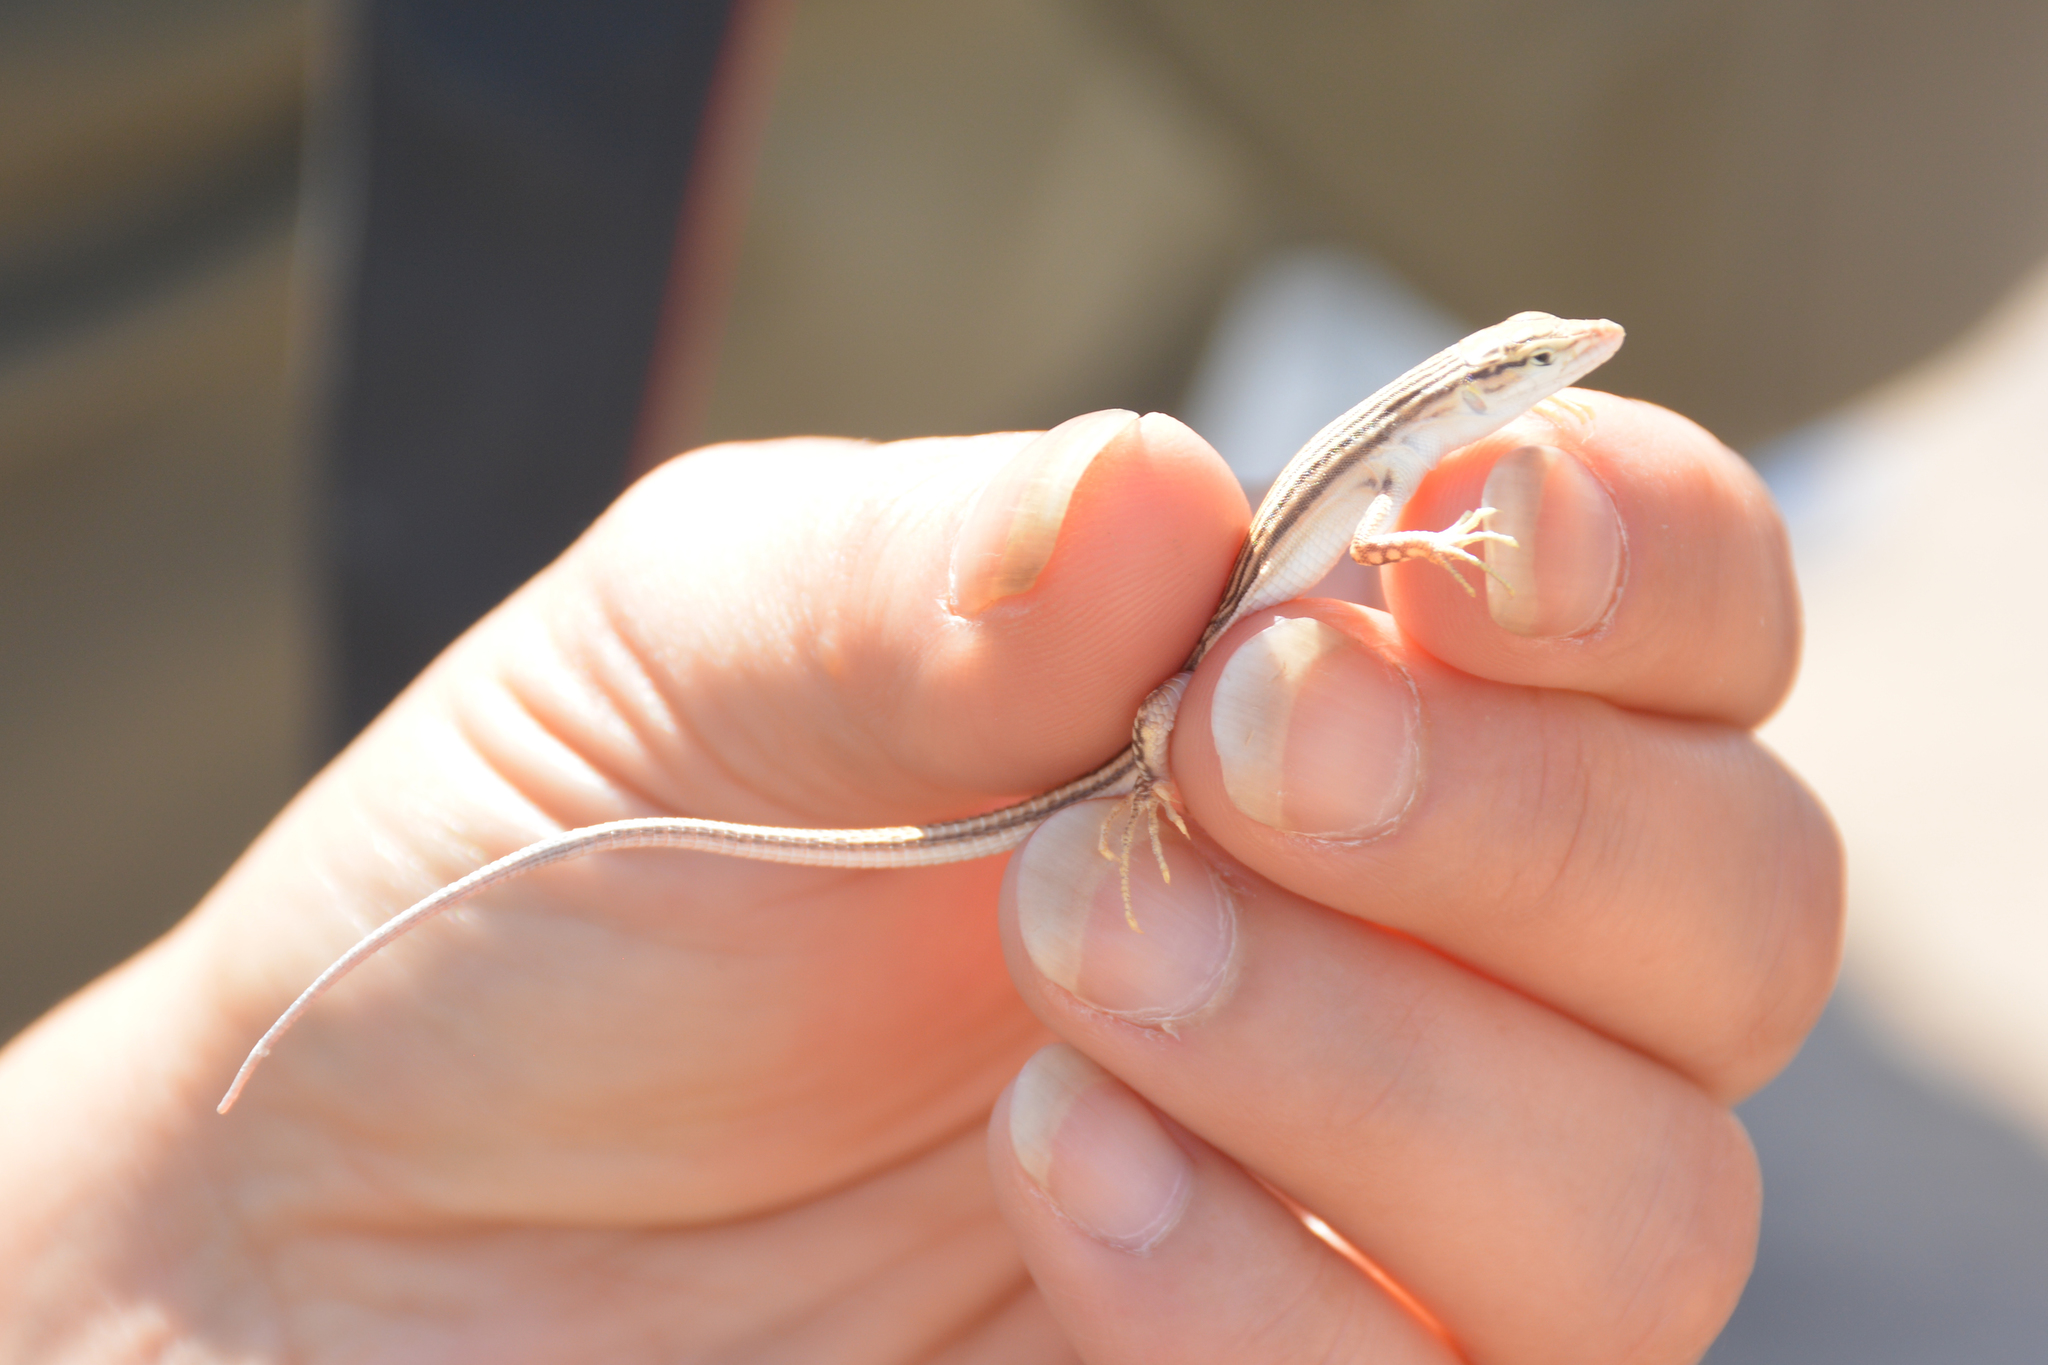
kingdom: Animalia
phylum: Chordata
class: Squamata
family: Lacertidae
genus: Eremias
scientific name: Eremias andersoni
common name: Anderson's racerunner
